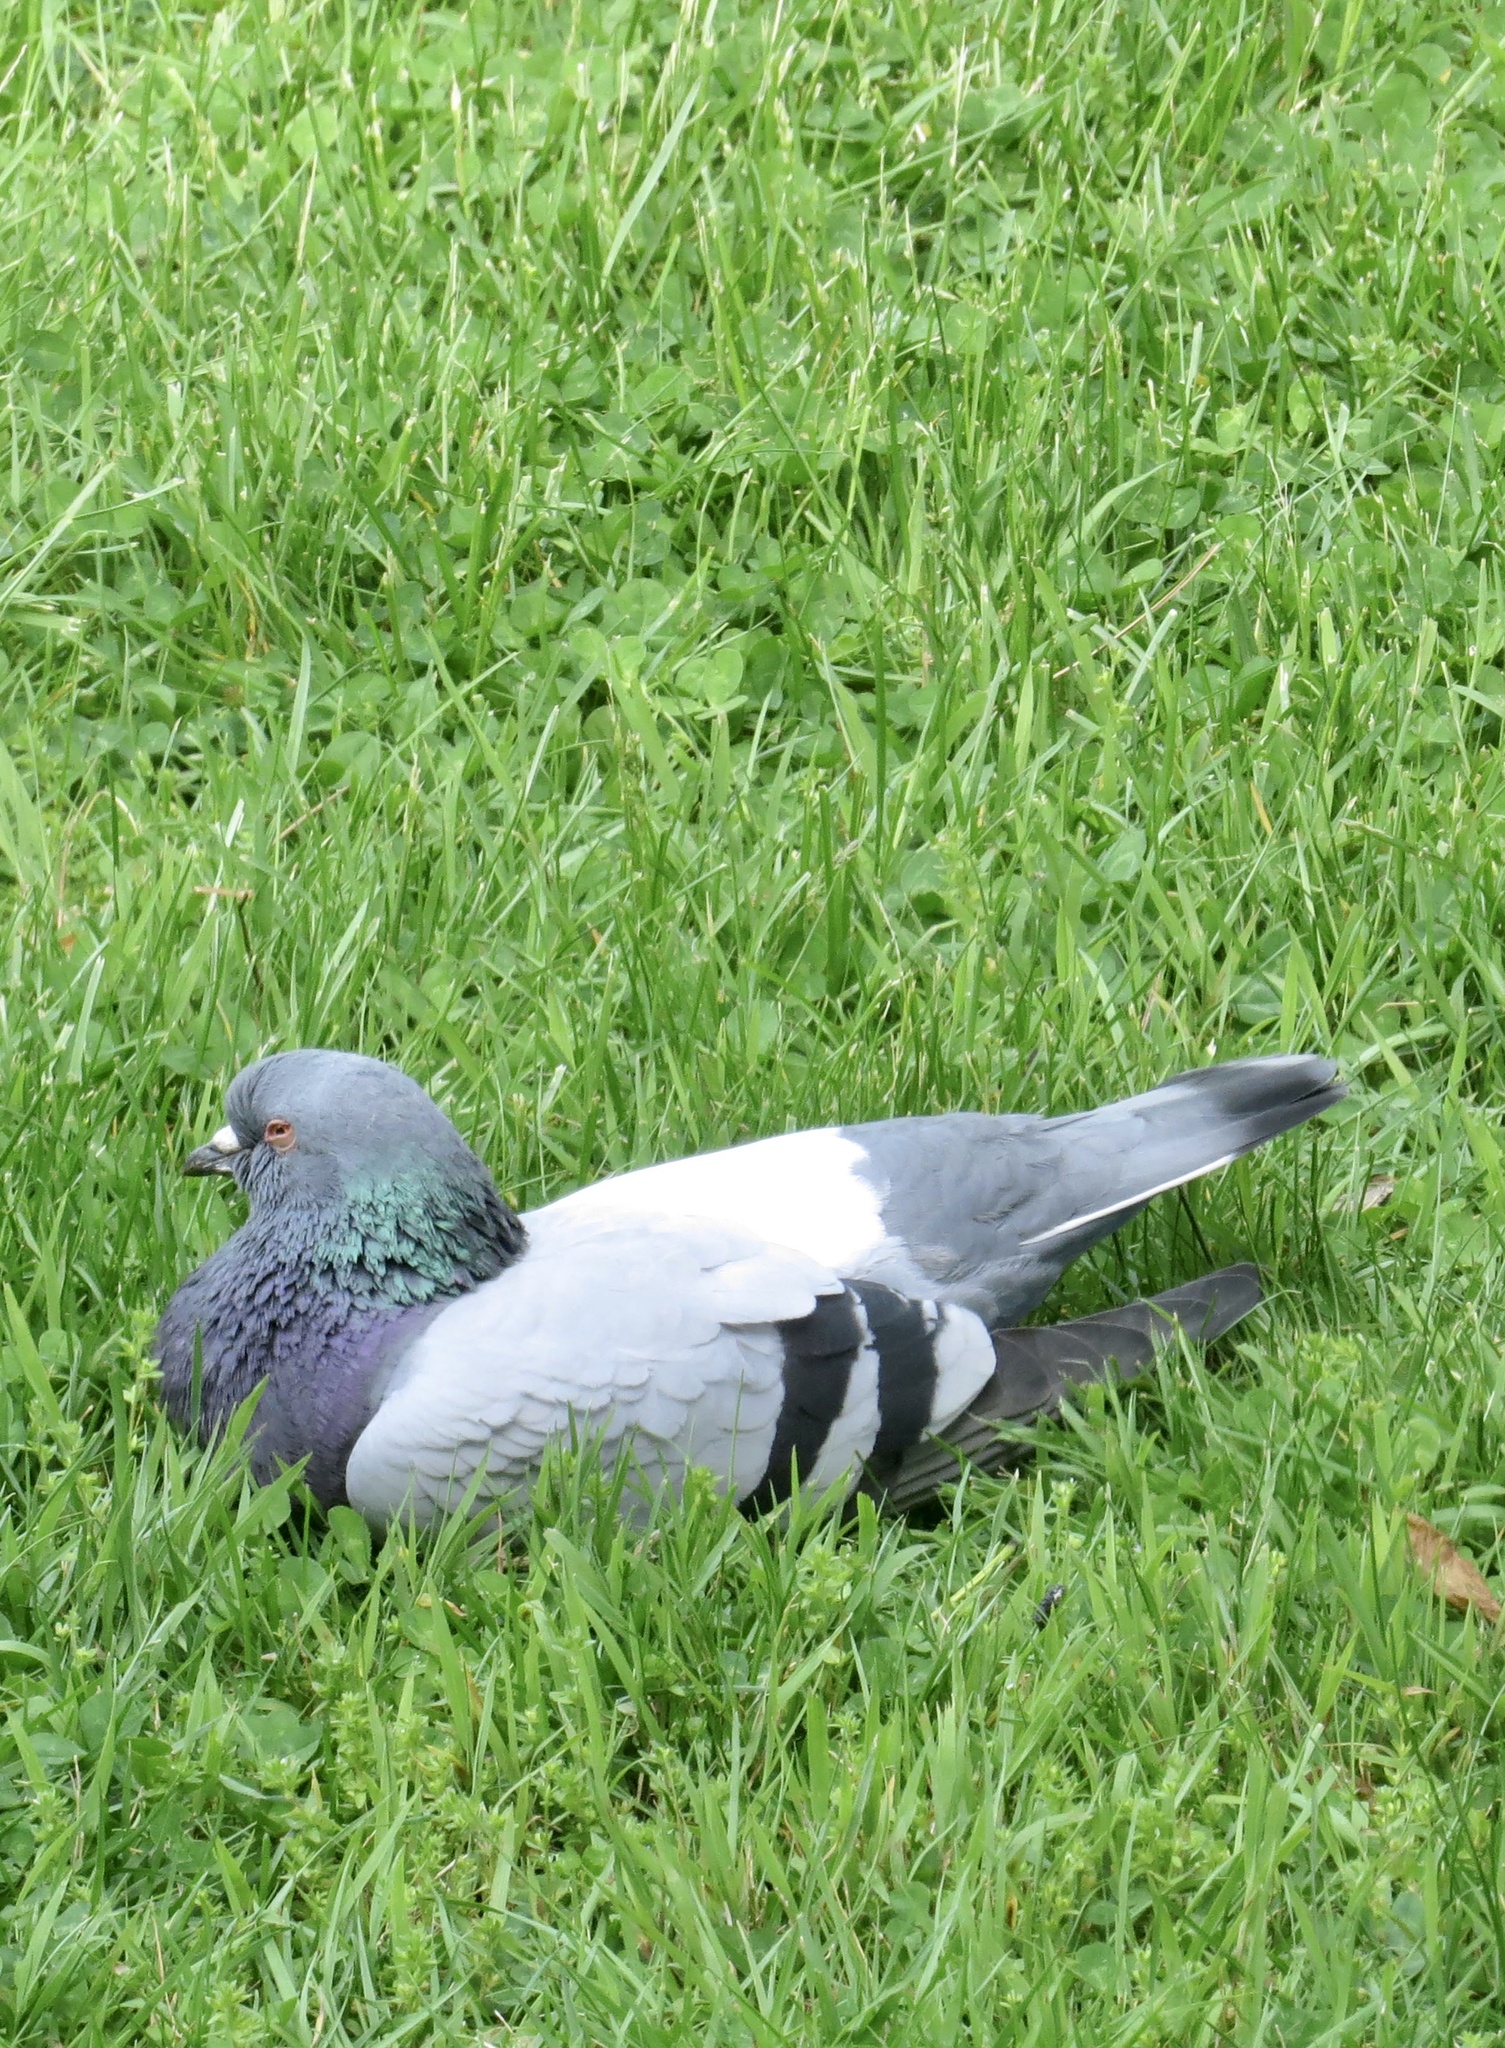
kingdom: Animalia
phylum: Chordata
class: Aves
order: Columbiformes
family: Columbidae
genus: Columba
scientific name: Columba livia
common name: Rock pigeon
